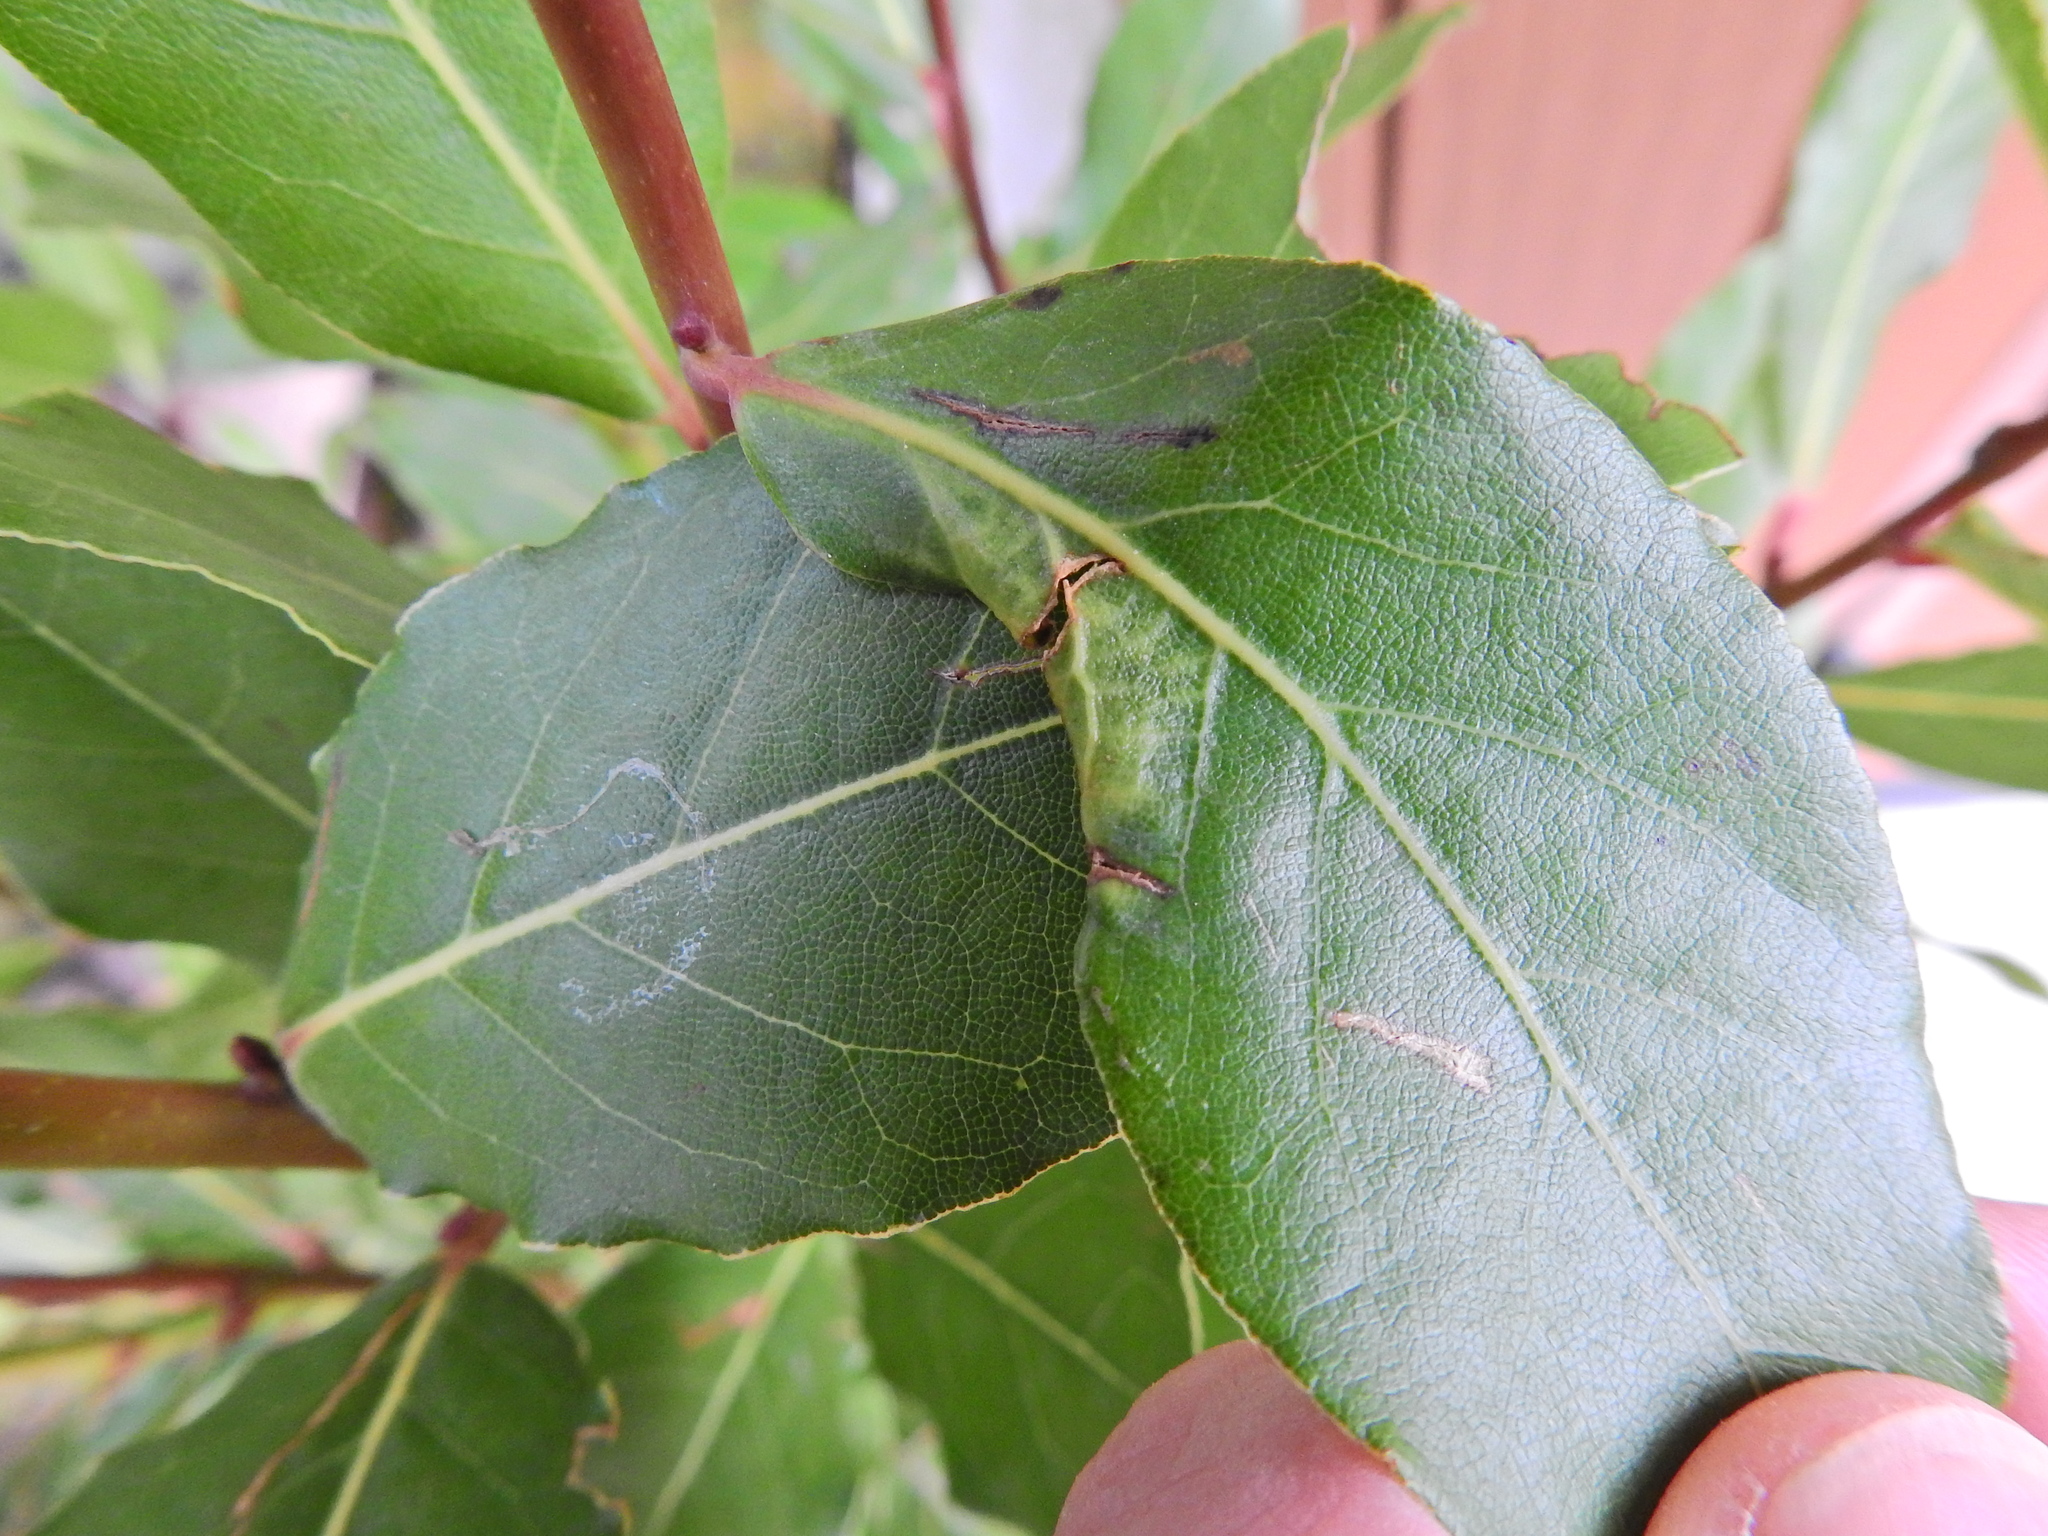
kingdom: Animalia
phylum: Arthropoda
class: Insecta
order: Hemiptera
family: Triozidae
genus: Lauritrioza
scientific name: Lauritrioza alacris
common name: Laurel psyllid
